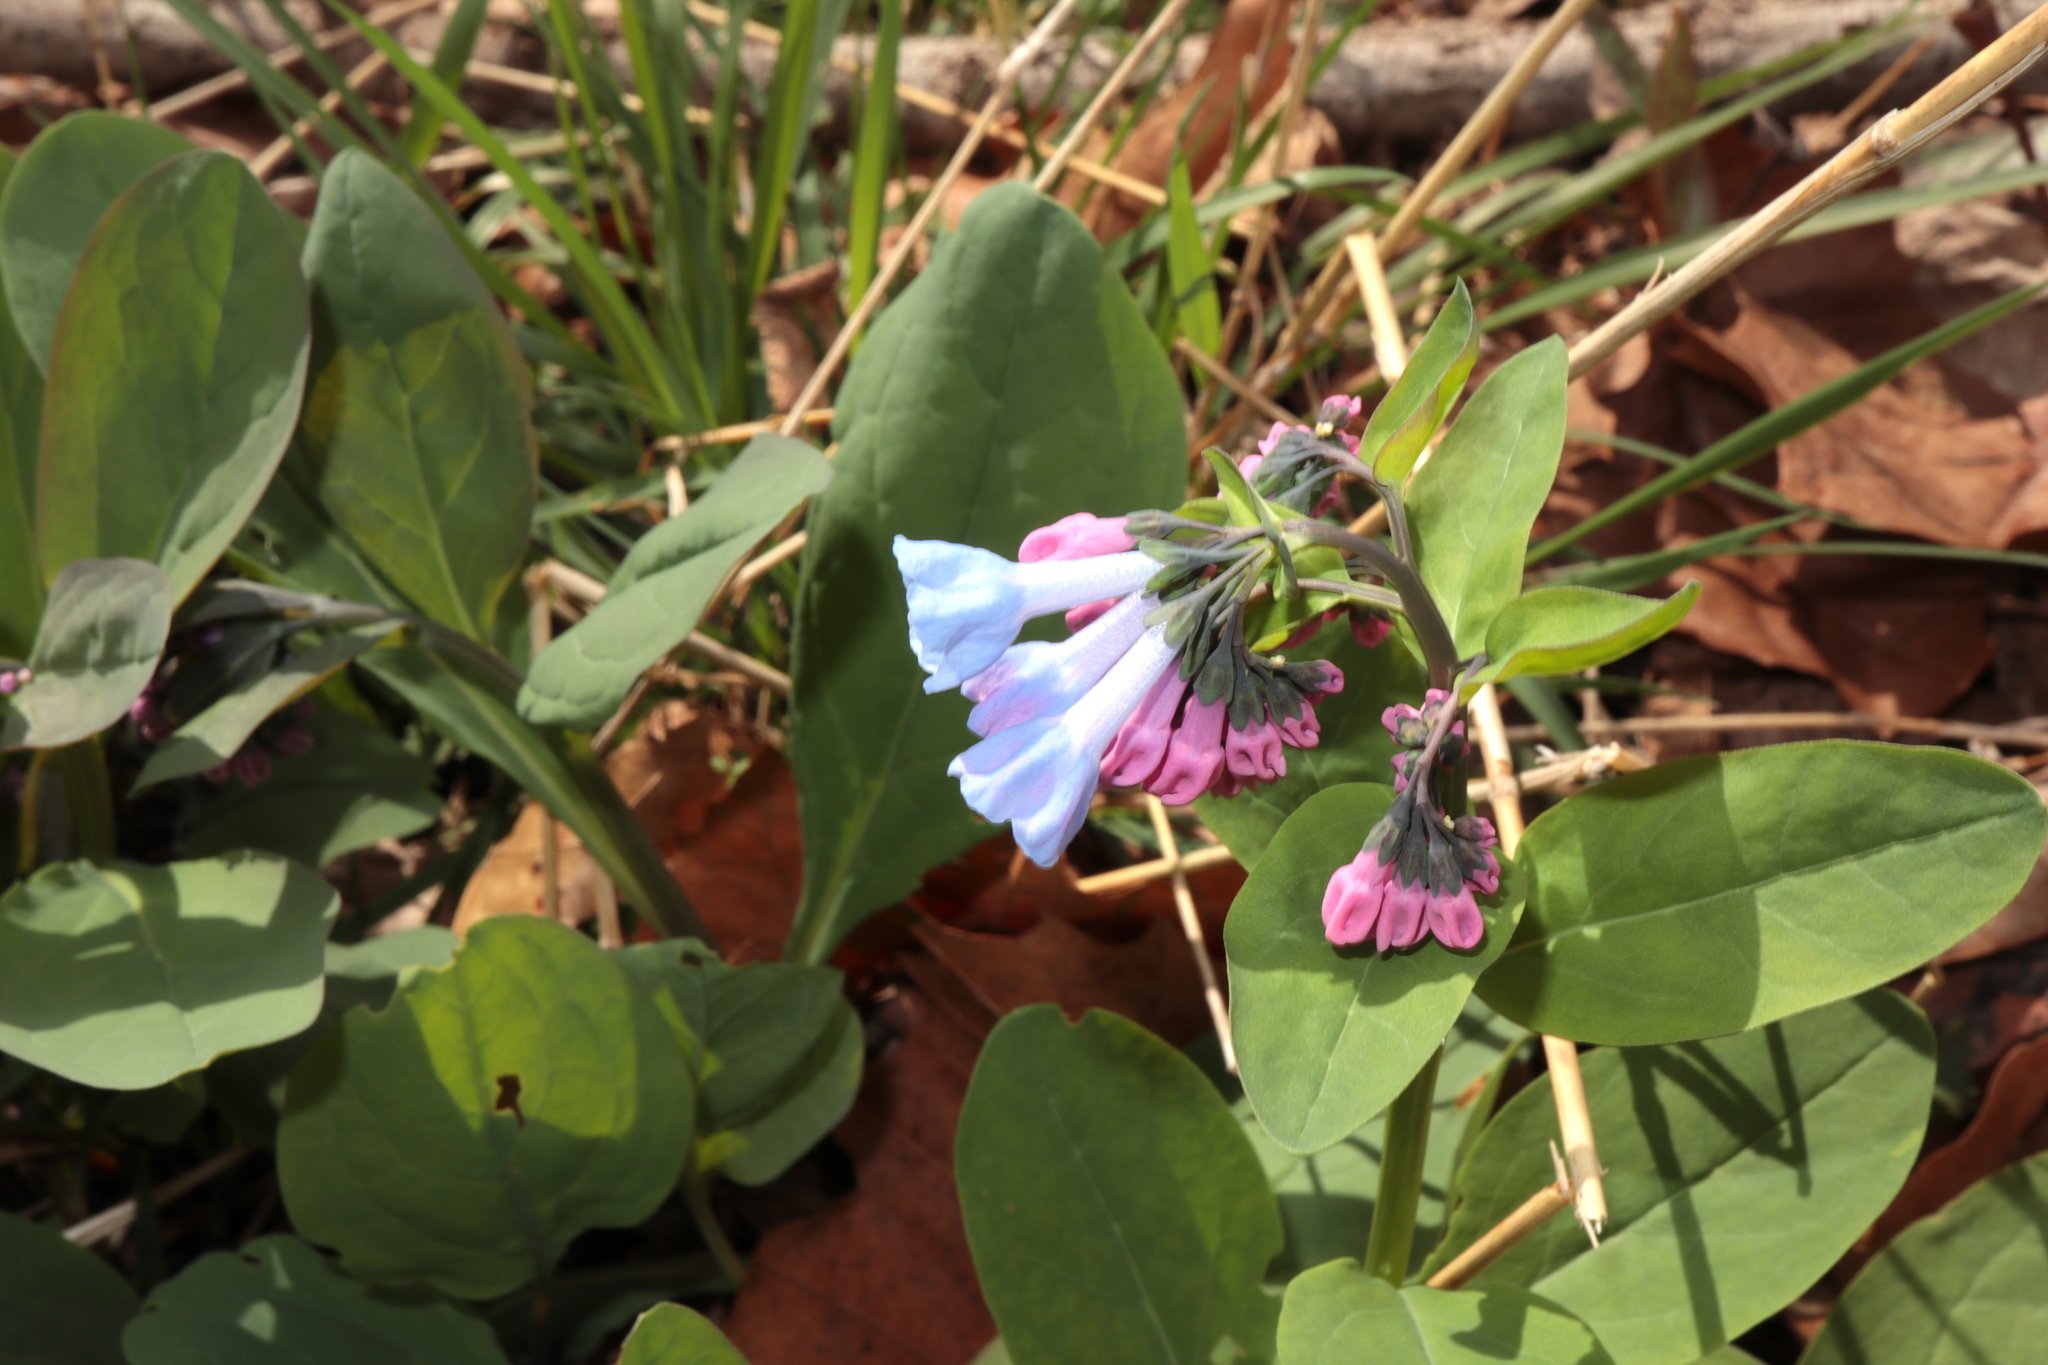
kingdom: Plantae
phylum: Tracheophyta
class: Magnoliopsida
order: Boraginales
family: Boraginaceae
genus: Mertensia
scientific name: Mertensia virginica
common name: Virginia bluebells
